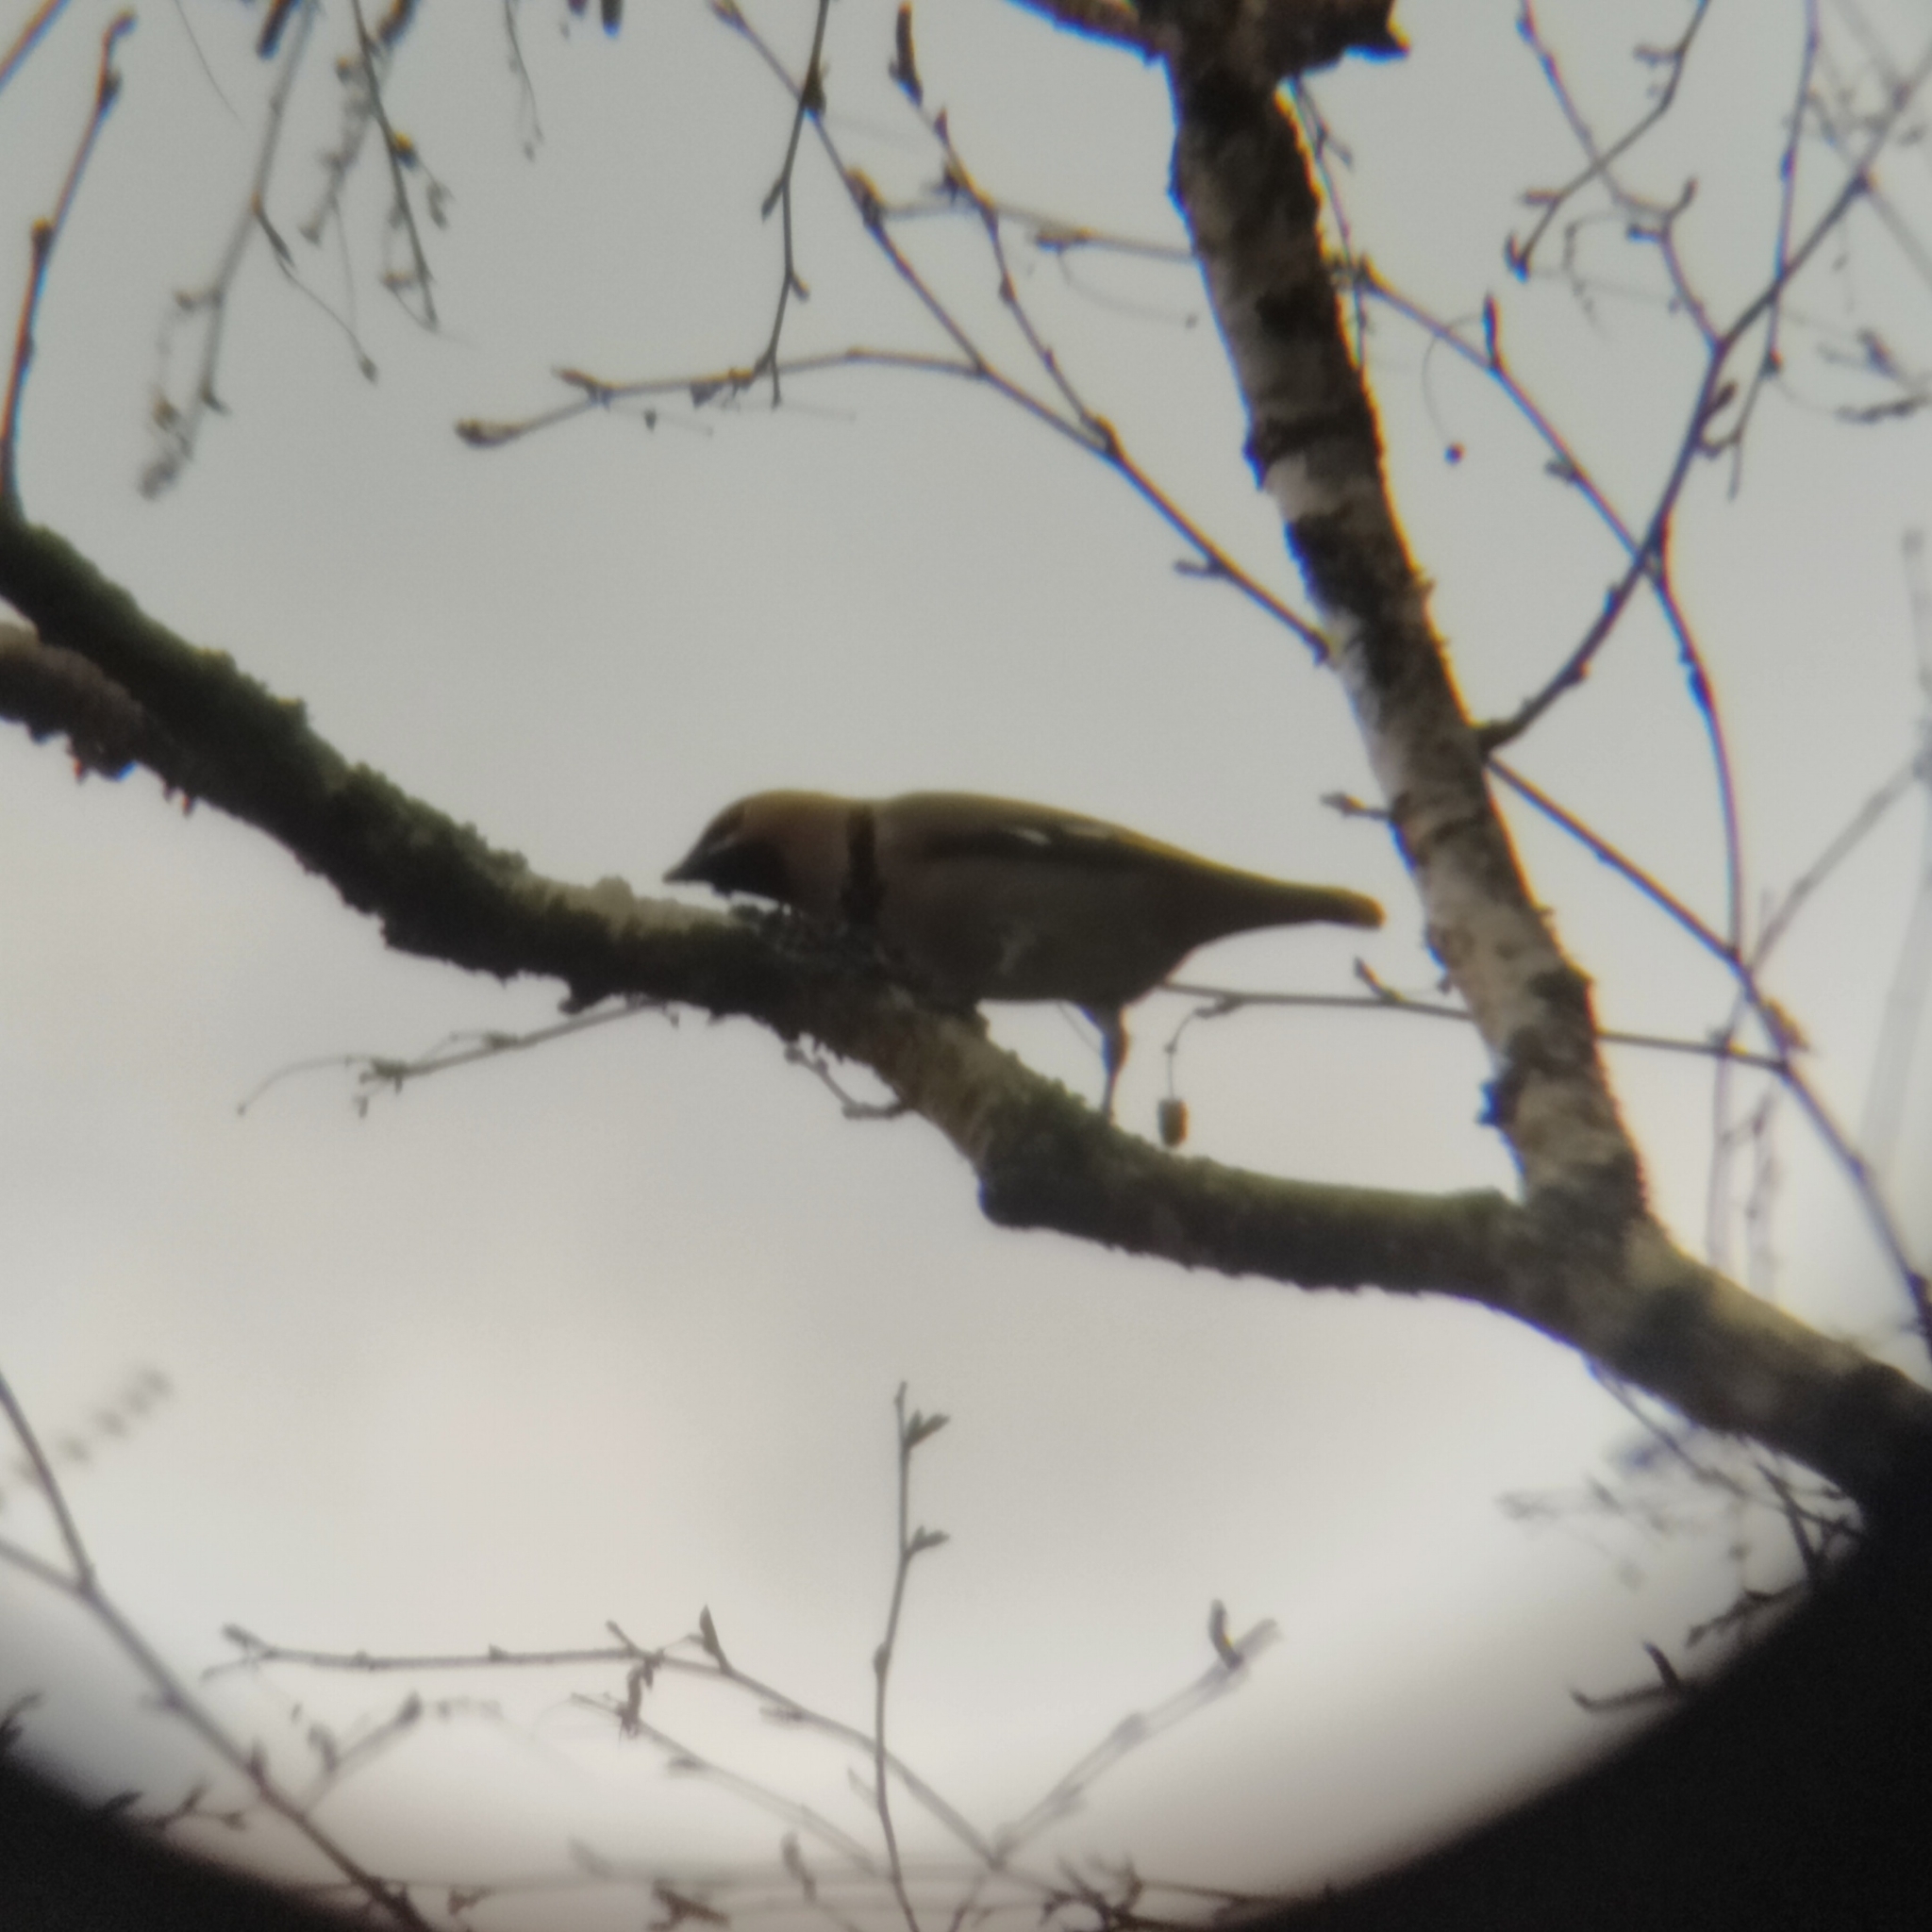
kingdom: Animalia
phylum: Chordata
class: Aves
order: Passeriformes
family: Bombycillidae
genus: Bombycilla
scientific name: Bombycilla garrulus
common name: Bohemian waxwing
